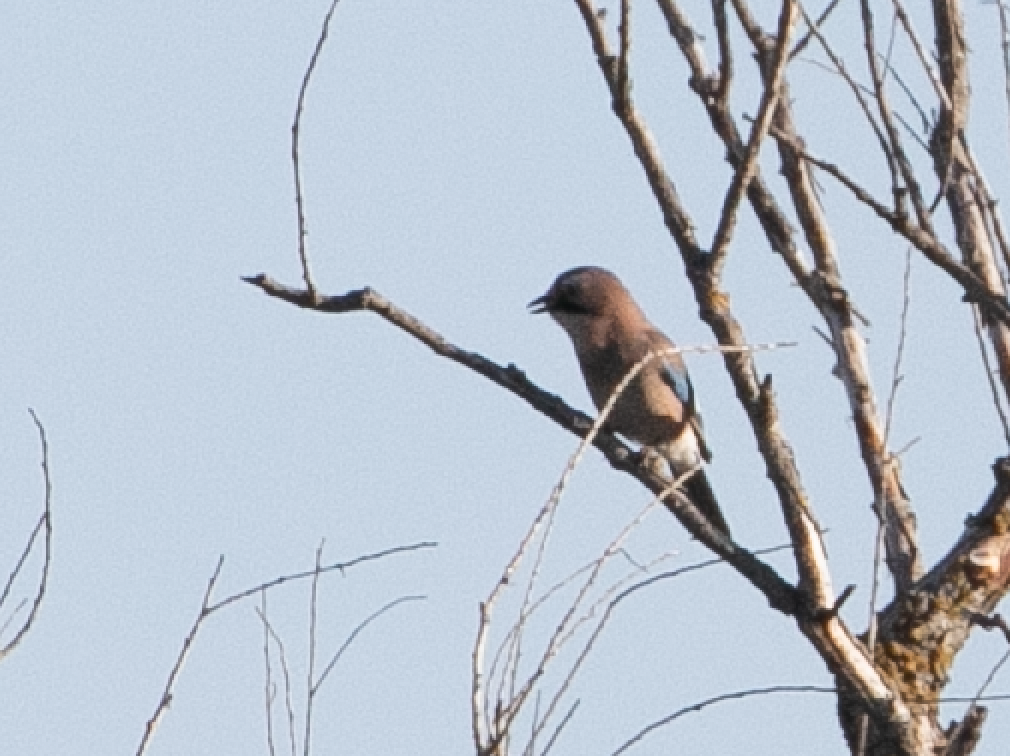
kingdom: Animalia
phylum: Chordata
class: Aves
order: Passeriformes
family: Corvidae
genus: Garrulus
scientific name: Garrulus glandarius
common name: Eurasian jay
